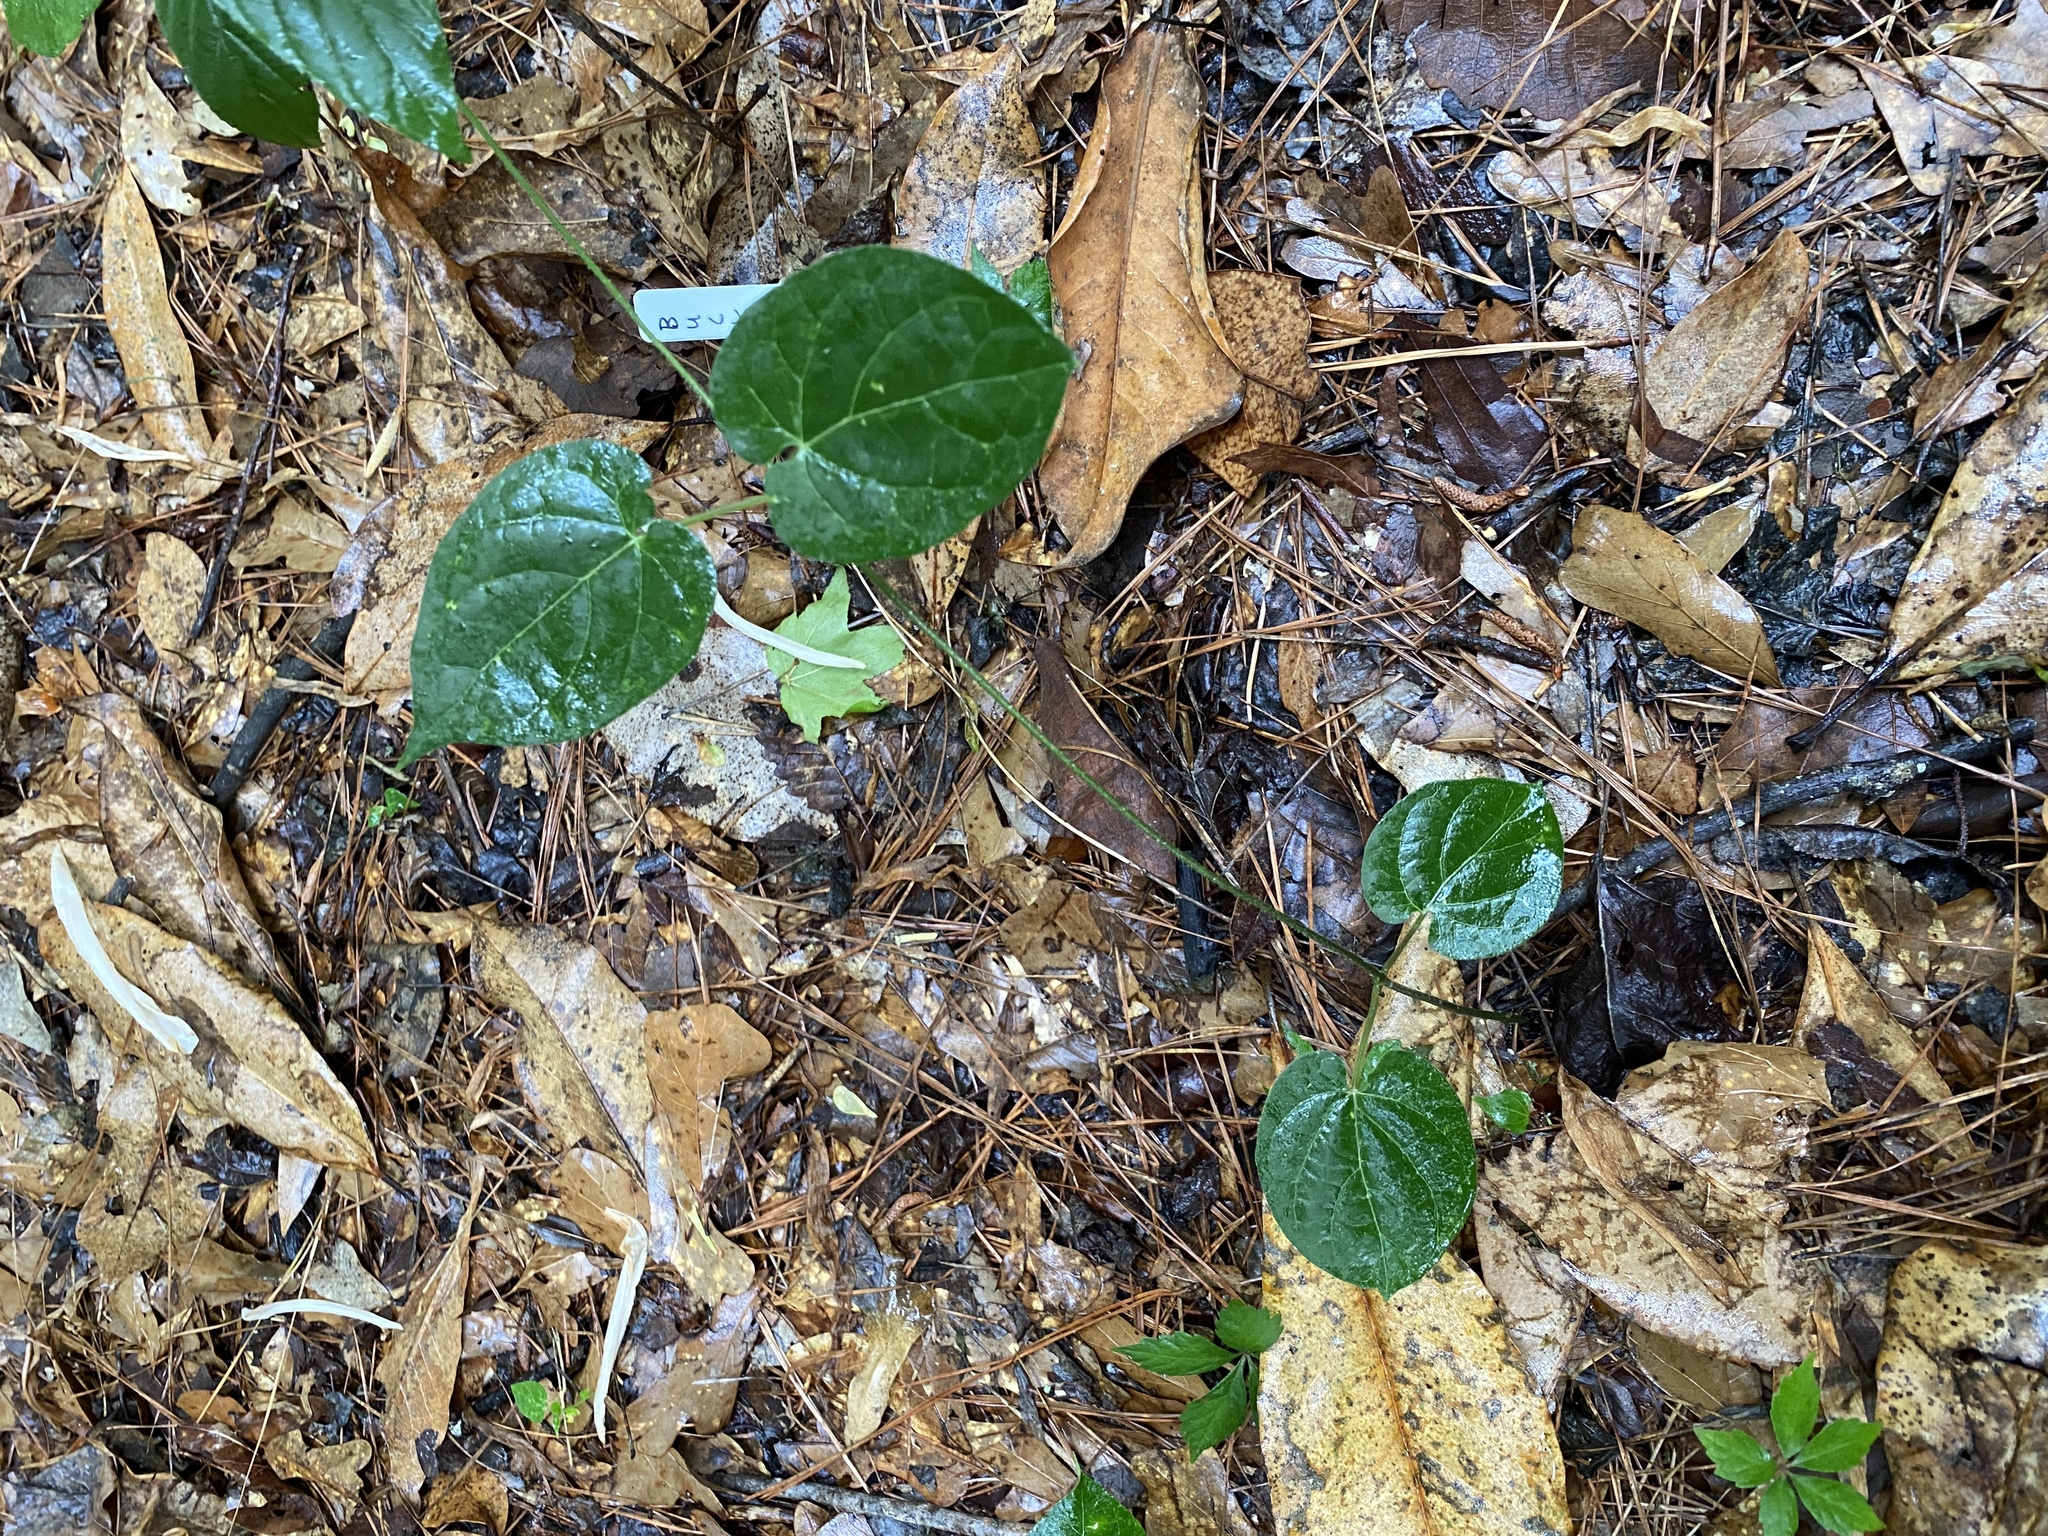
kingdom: Plantae
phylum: Tracheophyta
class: Magnoliopsida
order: Gentianales
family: Apocynaceae
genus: Gonolobus
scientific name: Gonolobus suberosus
